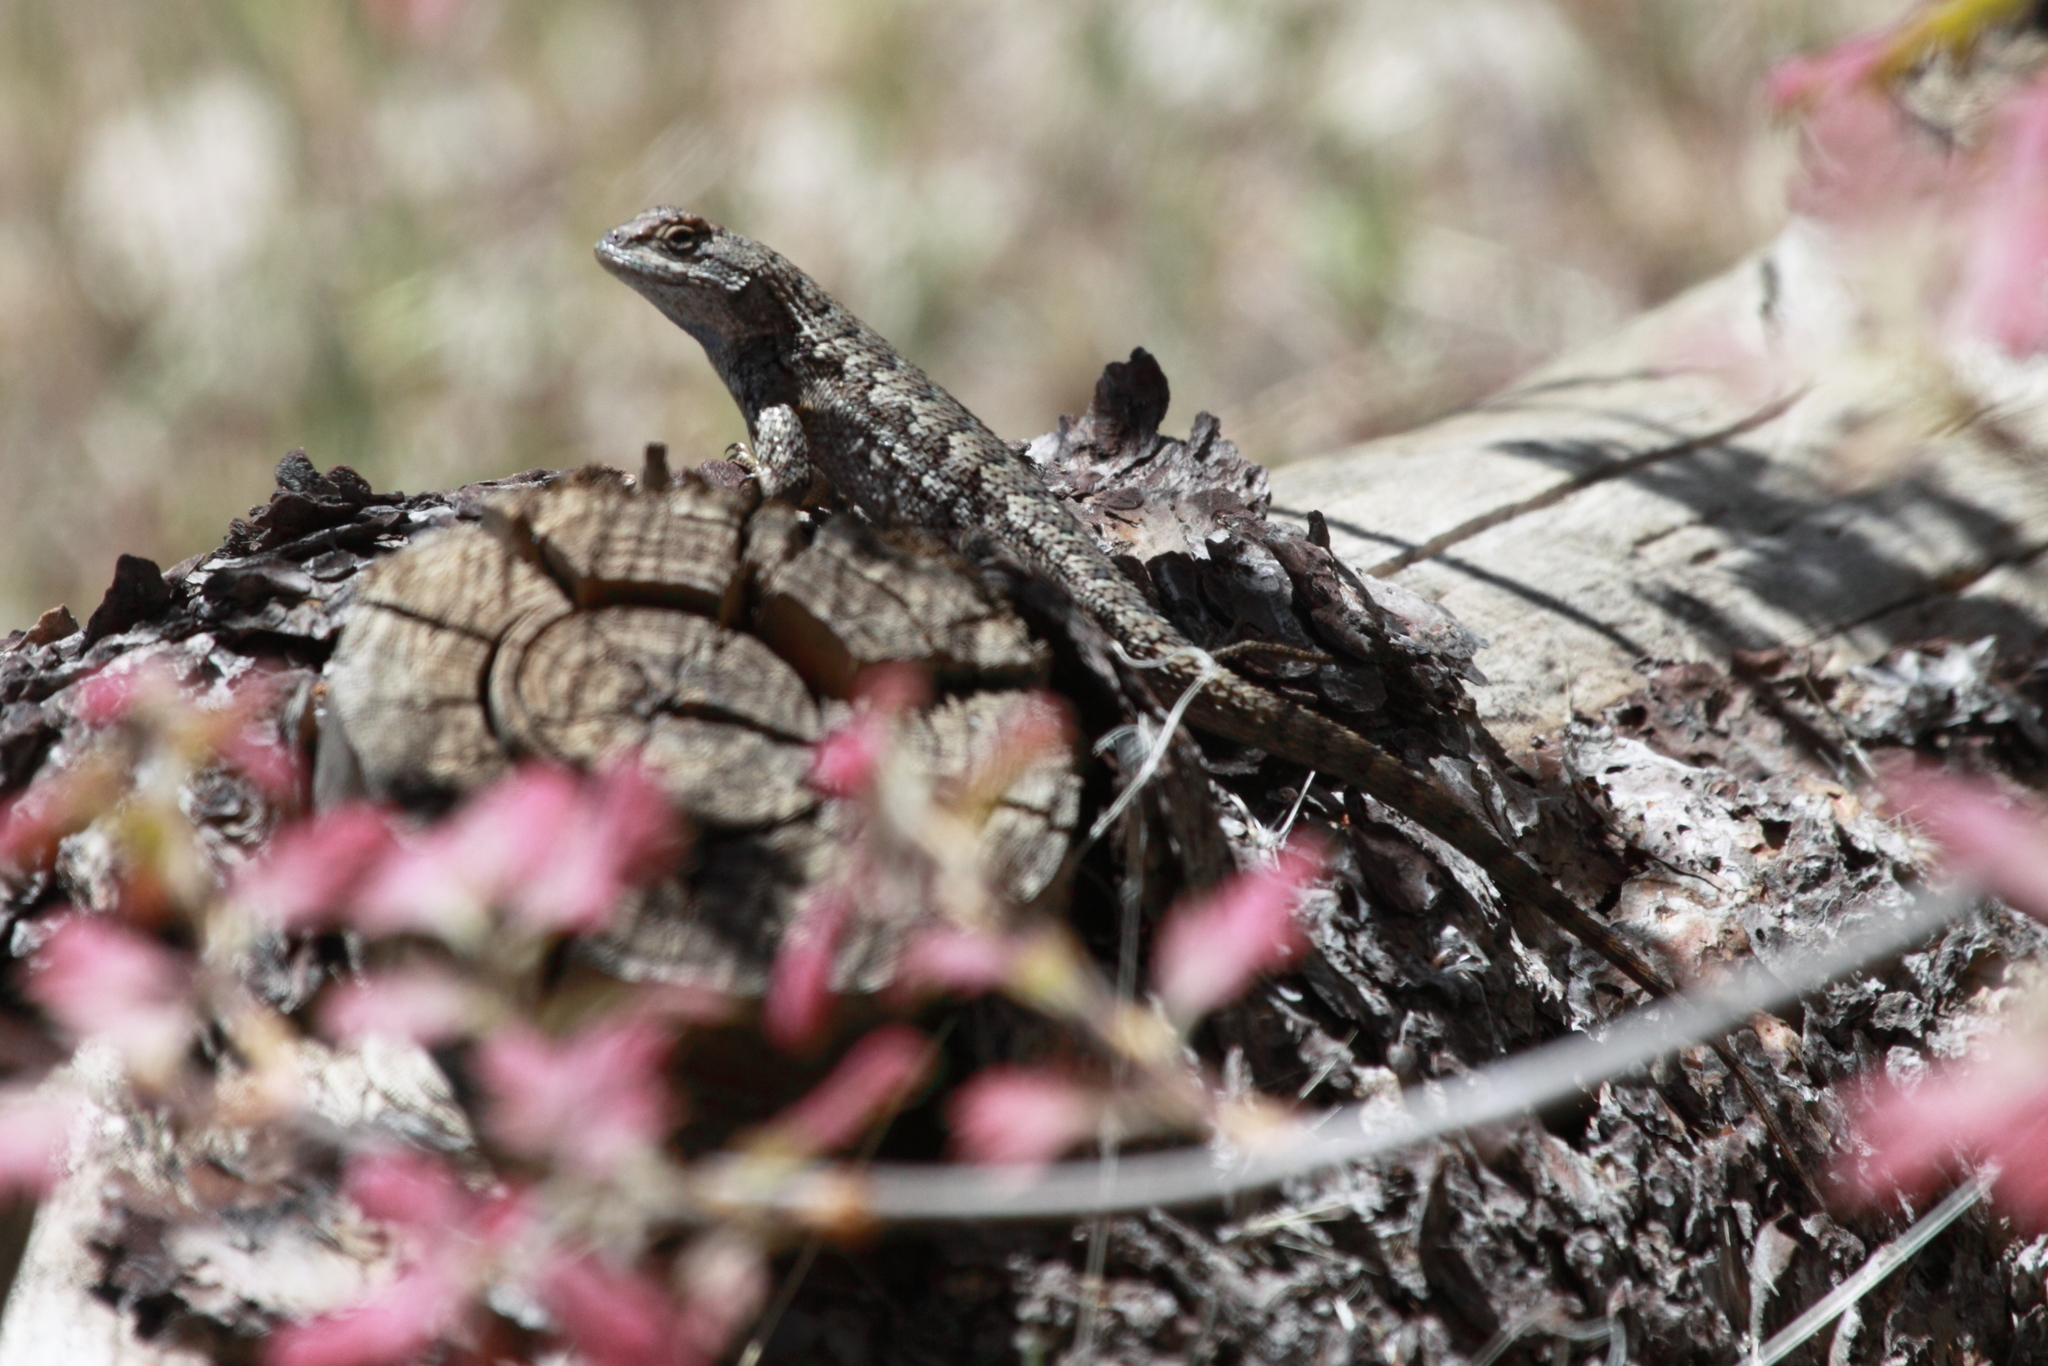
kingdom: Animalia
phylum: Chordata
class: Squamata
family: Phrynosomatidae
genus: Sceloporus
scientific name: Sceloporus occidentalis
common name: Western fence lizard
